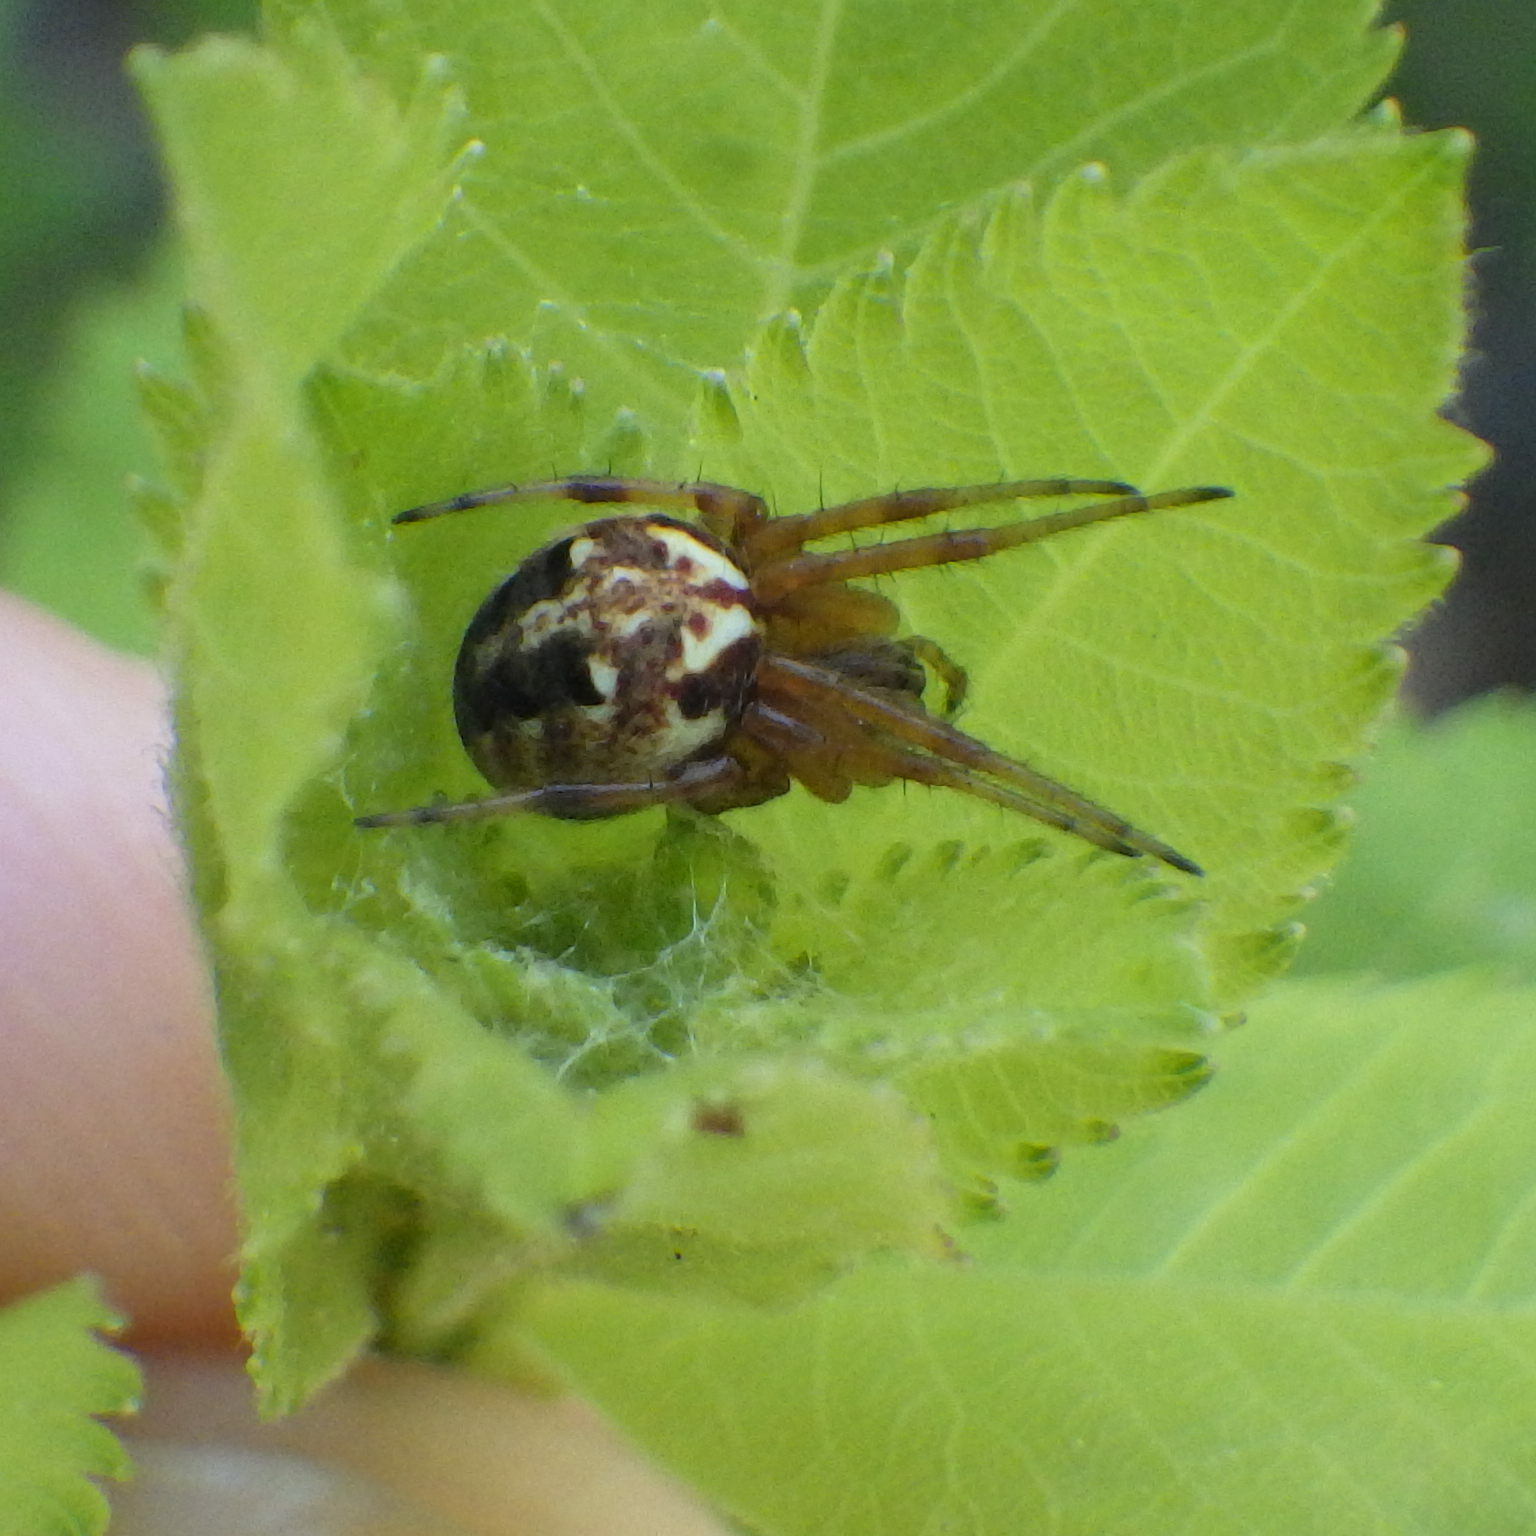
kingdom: Animalia
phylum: Arthropoda
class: Arachnida
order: Araneae
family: Araneidae
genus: Neoscona
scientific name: Neoscona arabesca
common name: Orb weavers
